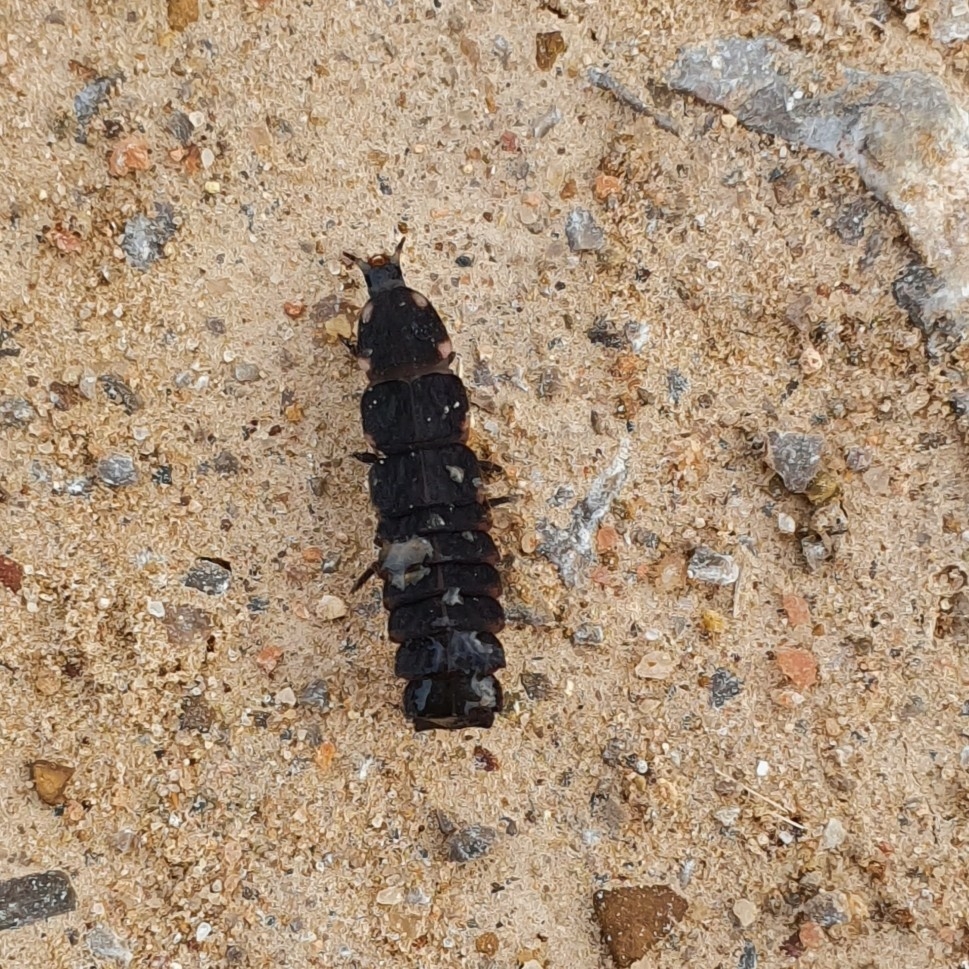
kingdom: Animalia
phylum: Arthropoda
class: Insecta
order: Coleoptera
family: Lampyridae
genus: Pelania
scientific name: Pelania mauritanica
